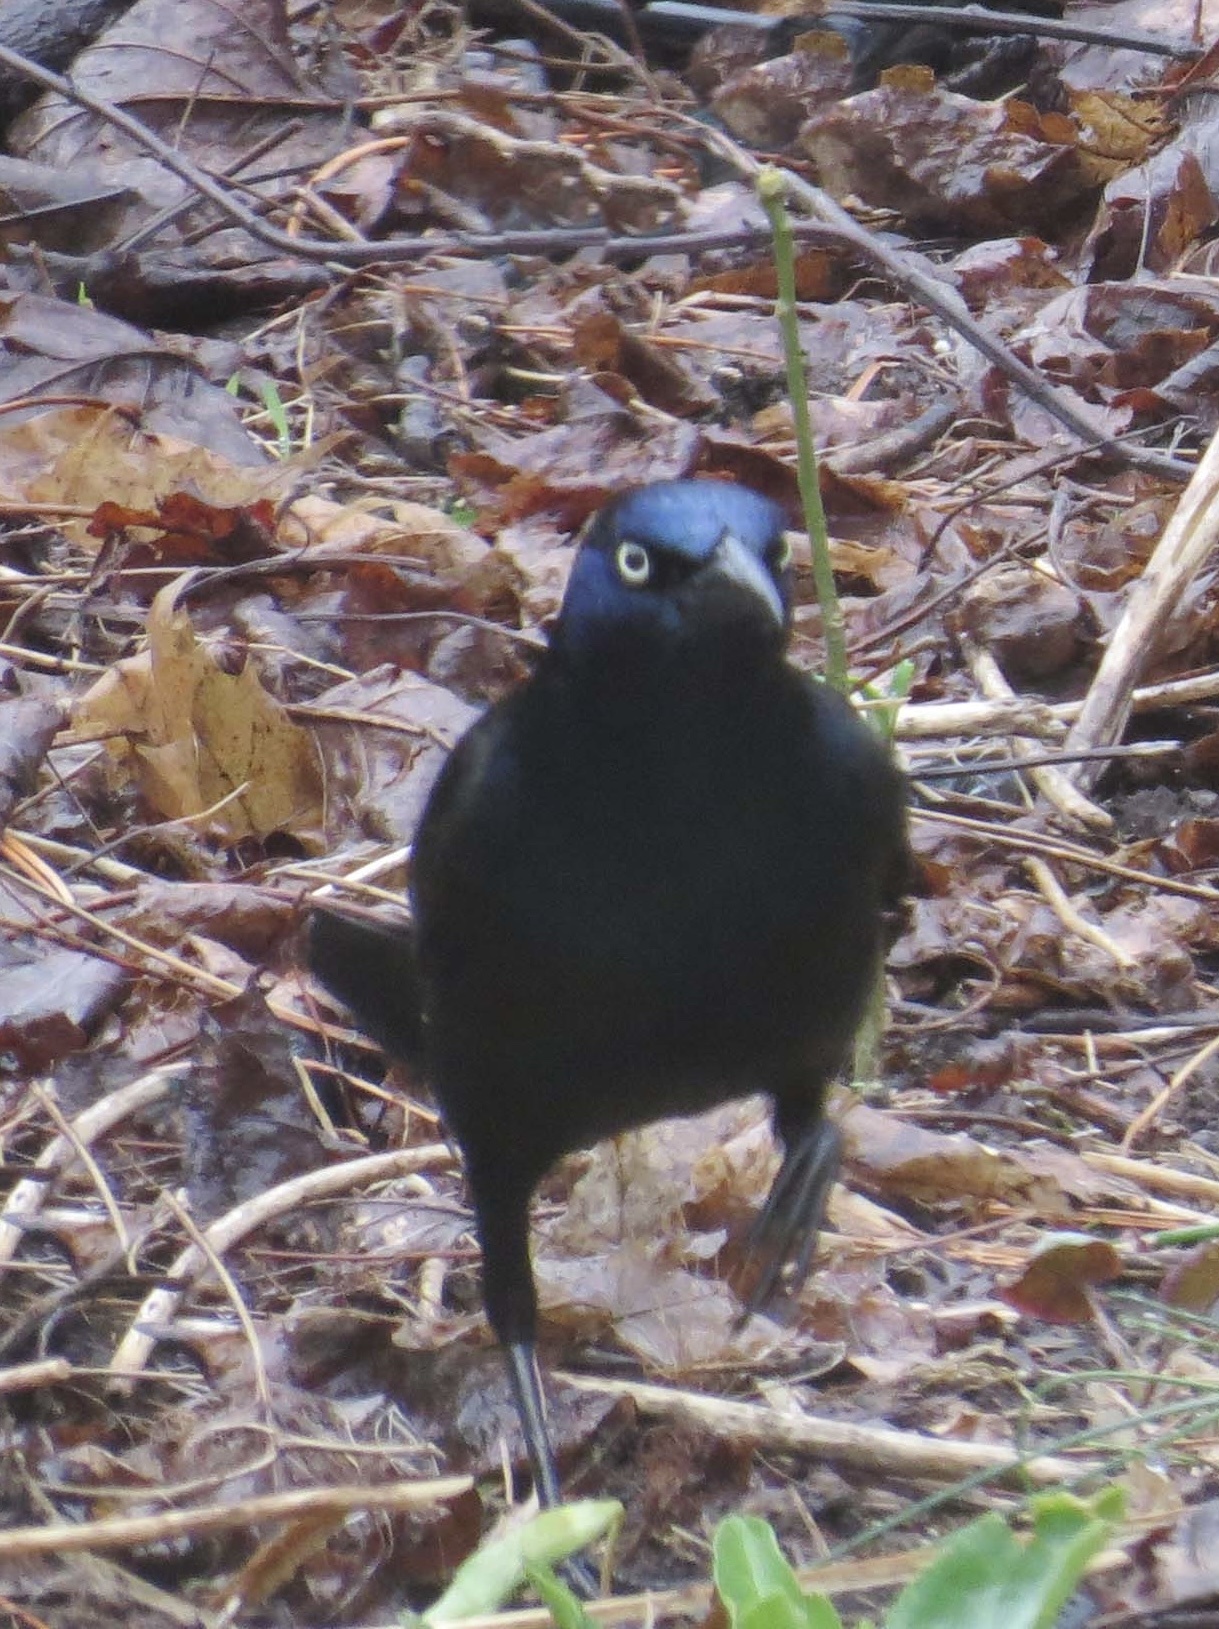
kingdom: Animalia
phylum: Chordata
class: Aves
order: Passeriformes
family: Icteridae
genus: Quiscalus
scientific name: Quiscalus quiscula
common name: Common grackle
